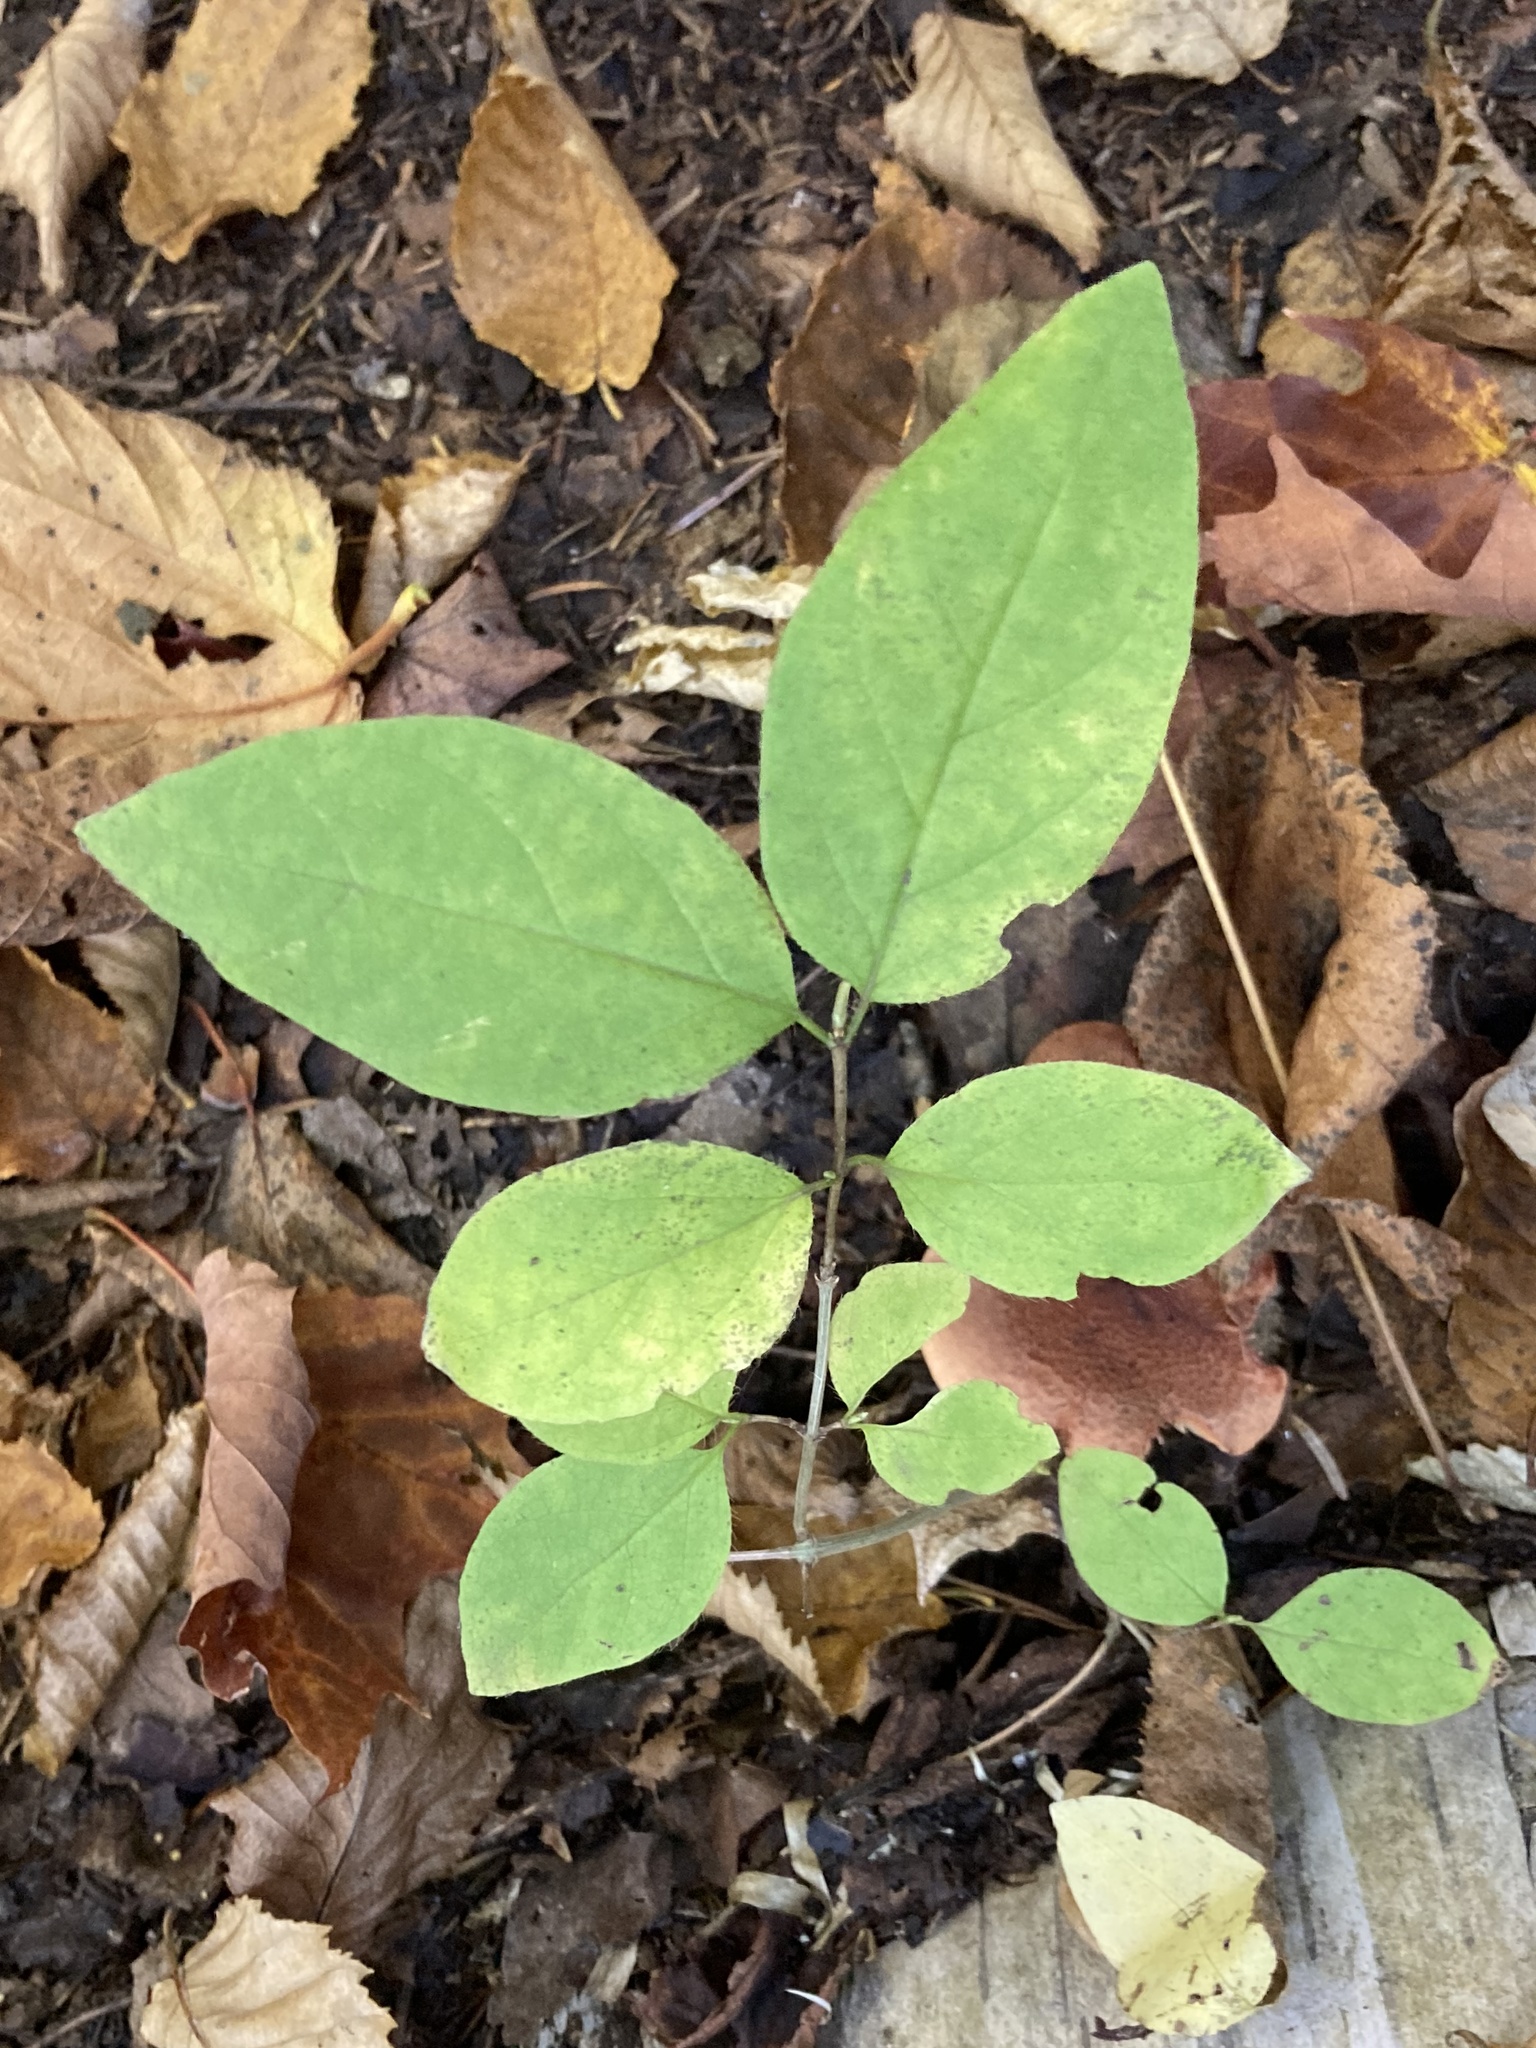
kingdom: Plantae
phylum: Tracheophyta
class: Magnoliopsida
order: Dipsacales
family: Caprifoliaceae
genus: Lonicera
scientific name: Lonicera canadensis
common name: American fly-honeysuckle
